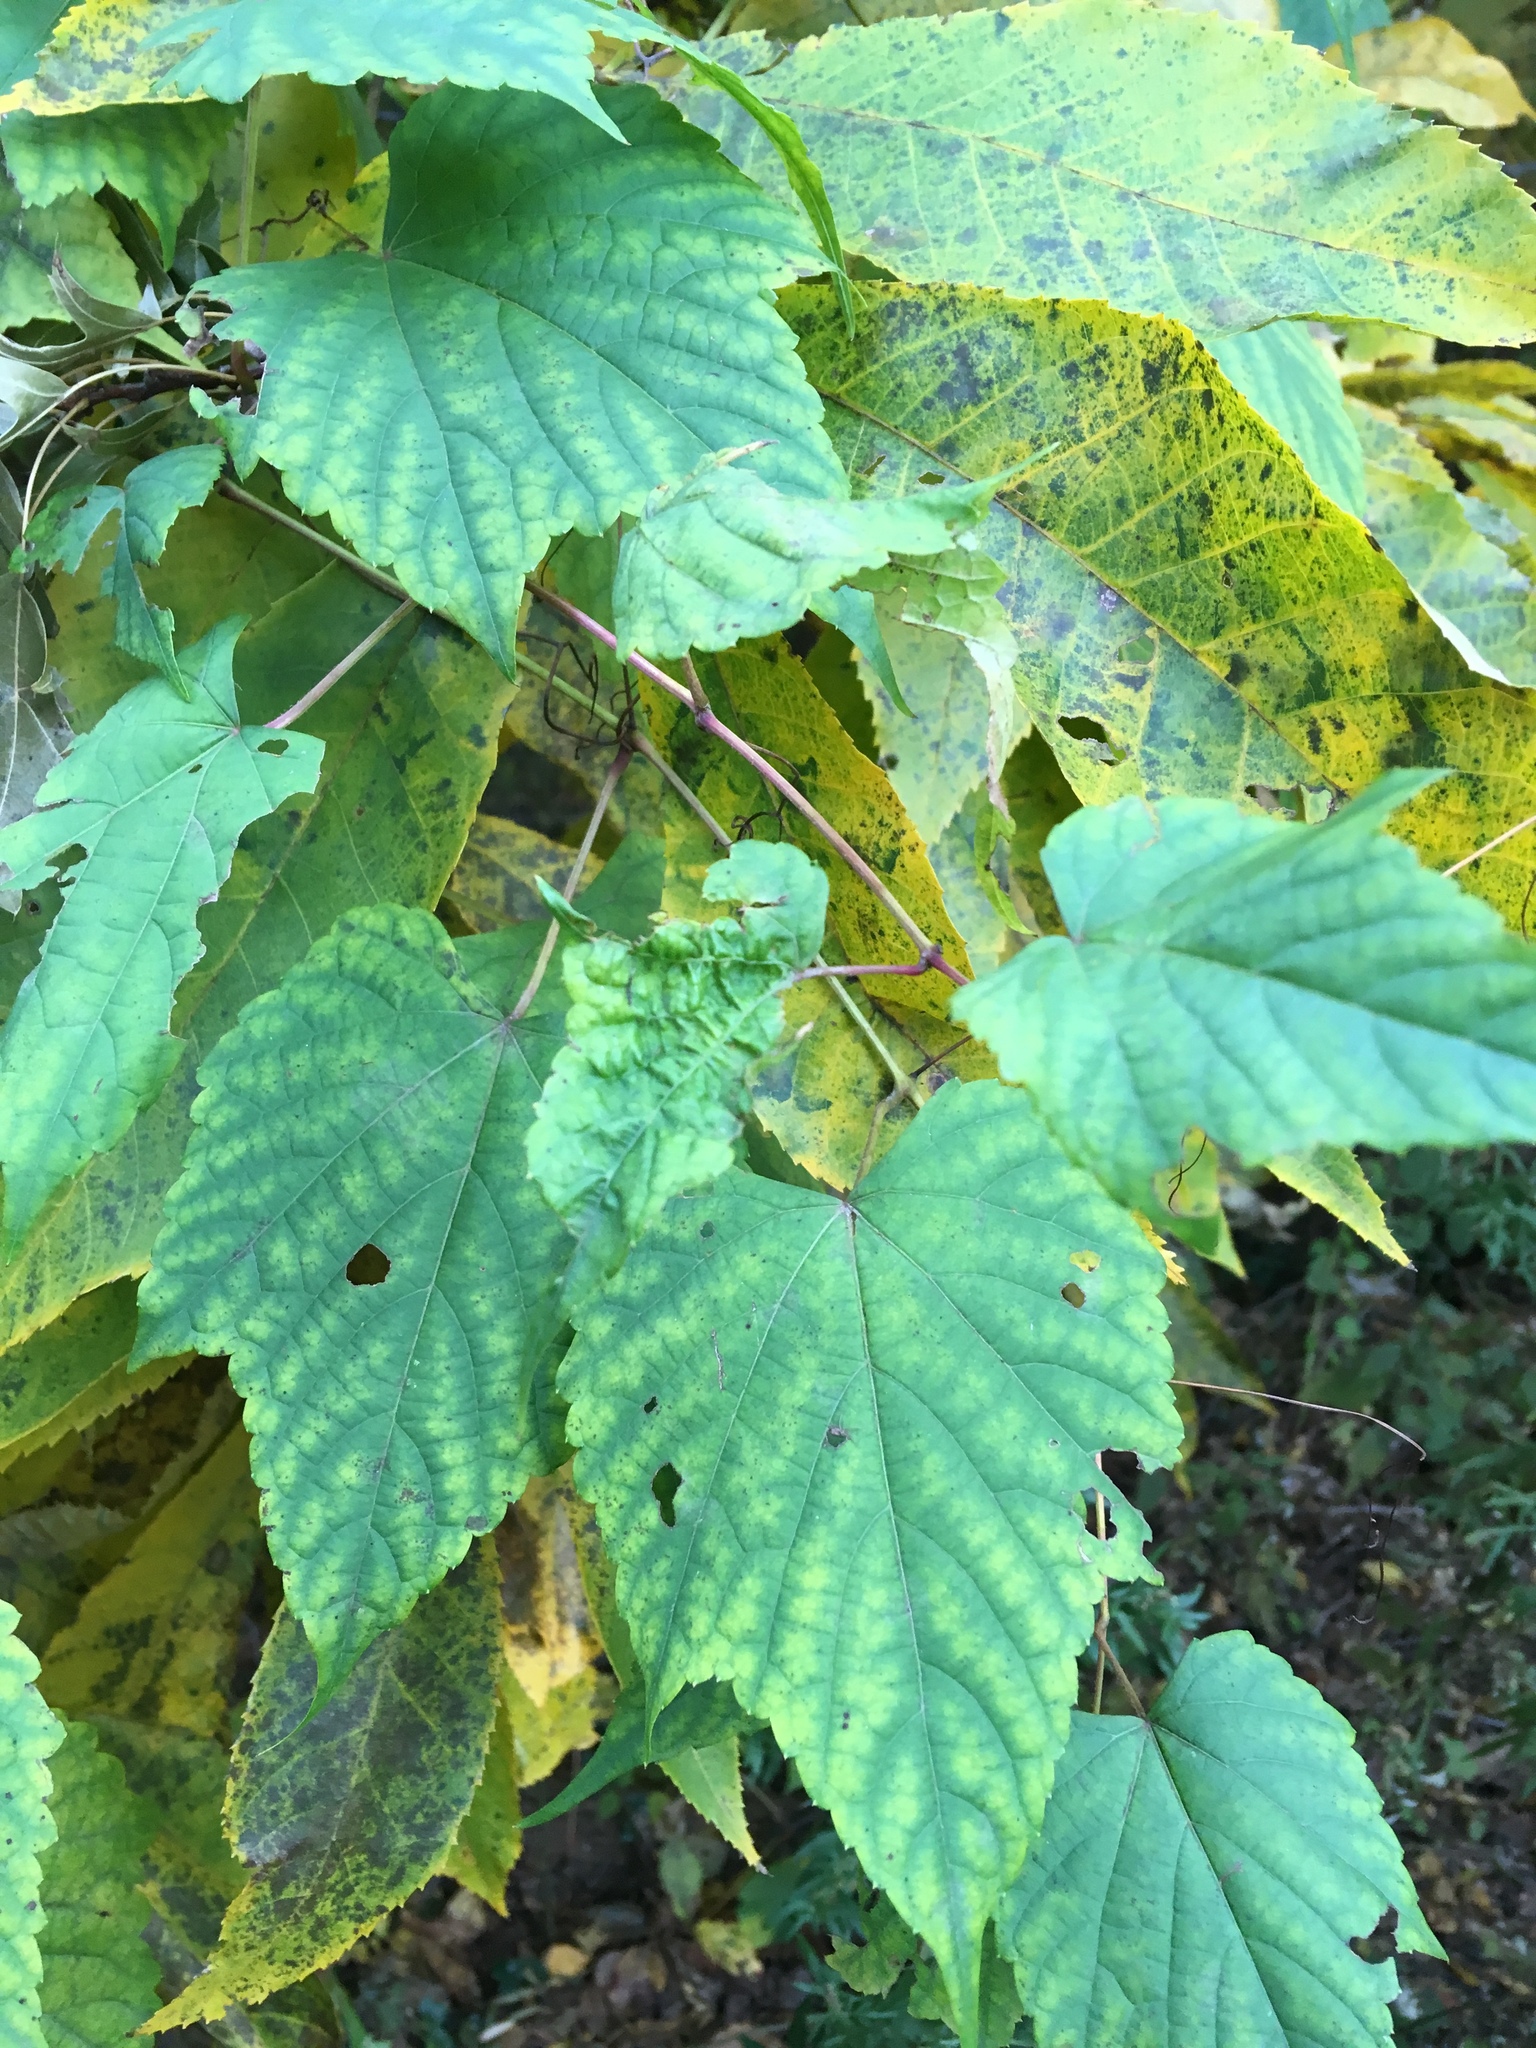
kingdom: Plantae
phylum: Tracheophyta
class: Magnoliopsida
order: Vitales
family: Vitaceae
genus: Ampelopsis
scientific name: Ampelopsis glandulosa
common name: Amur peppervine
